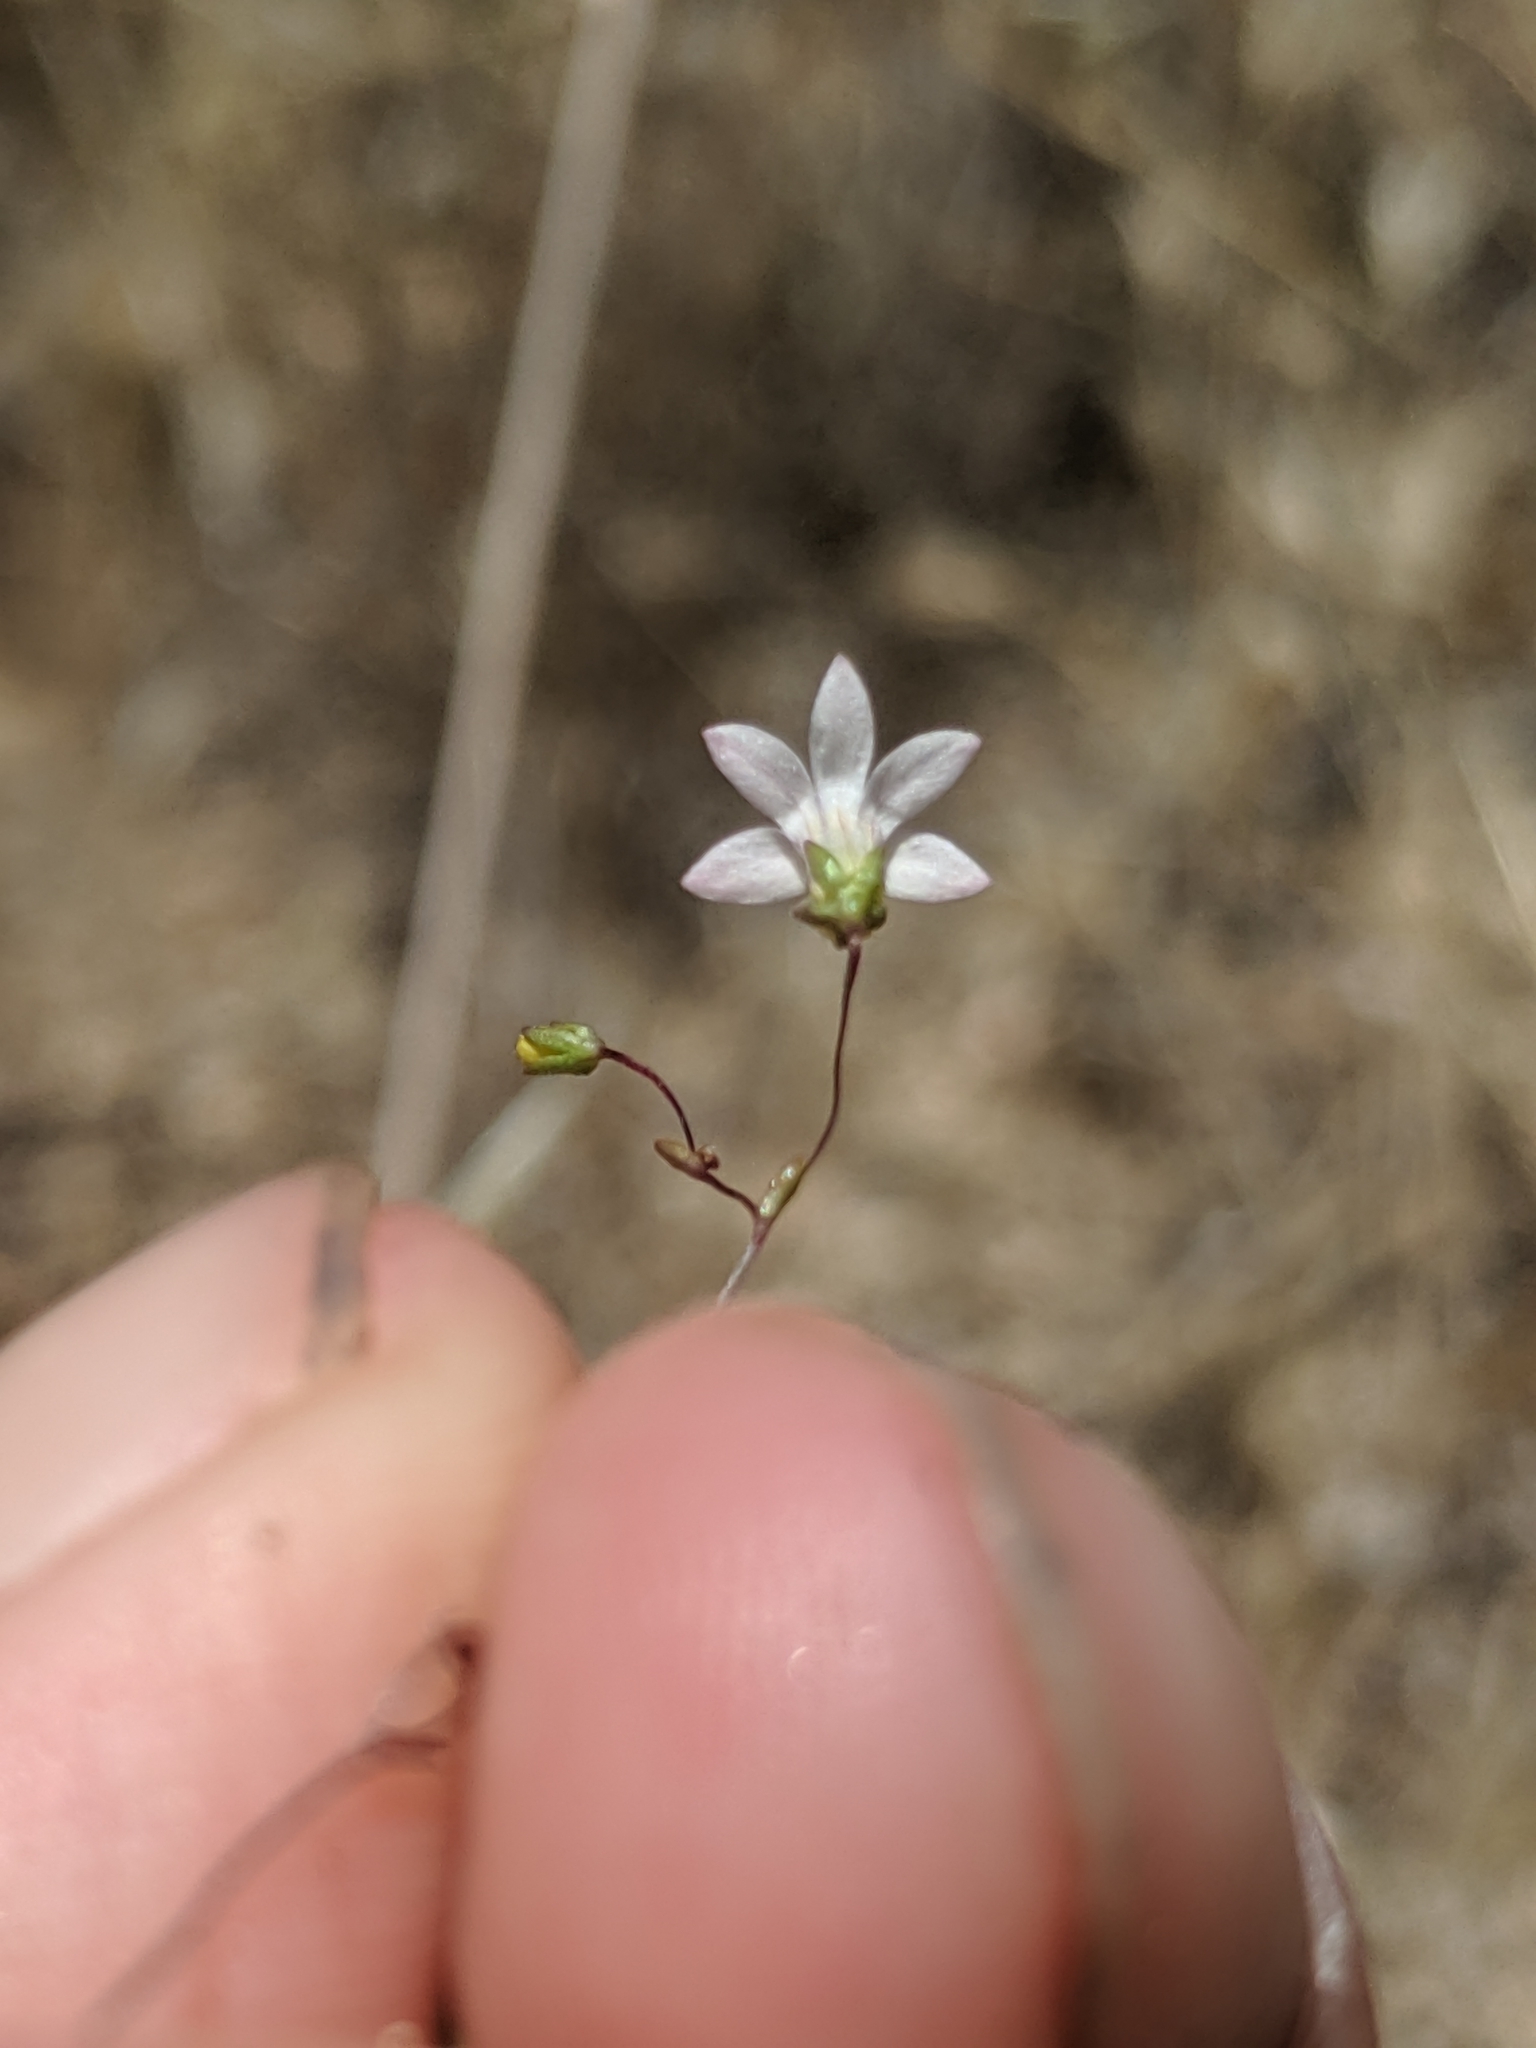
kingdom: Plantae
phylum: Tracheophyta
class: Magnoliopsida
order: Asterales
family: Campanulaceae
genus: Nemacladus
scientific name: Nemacladus secundiflorus
